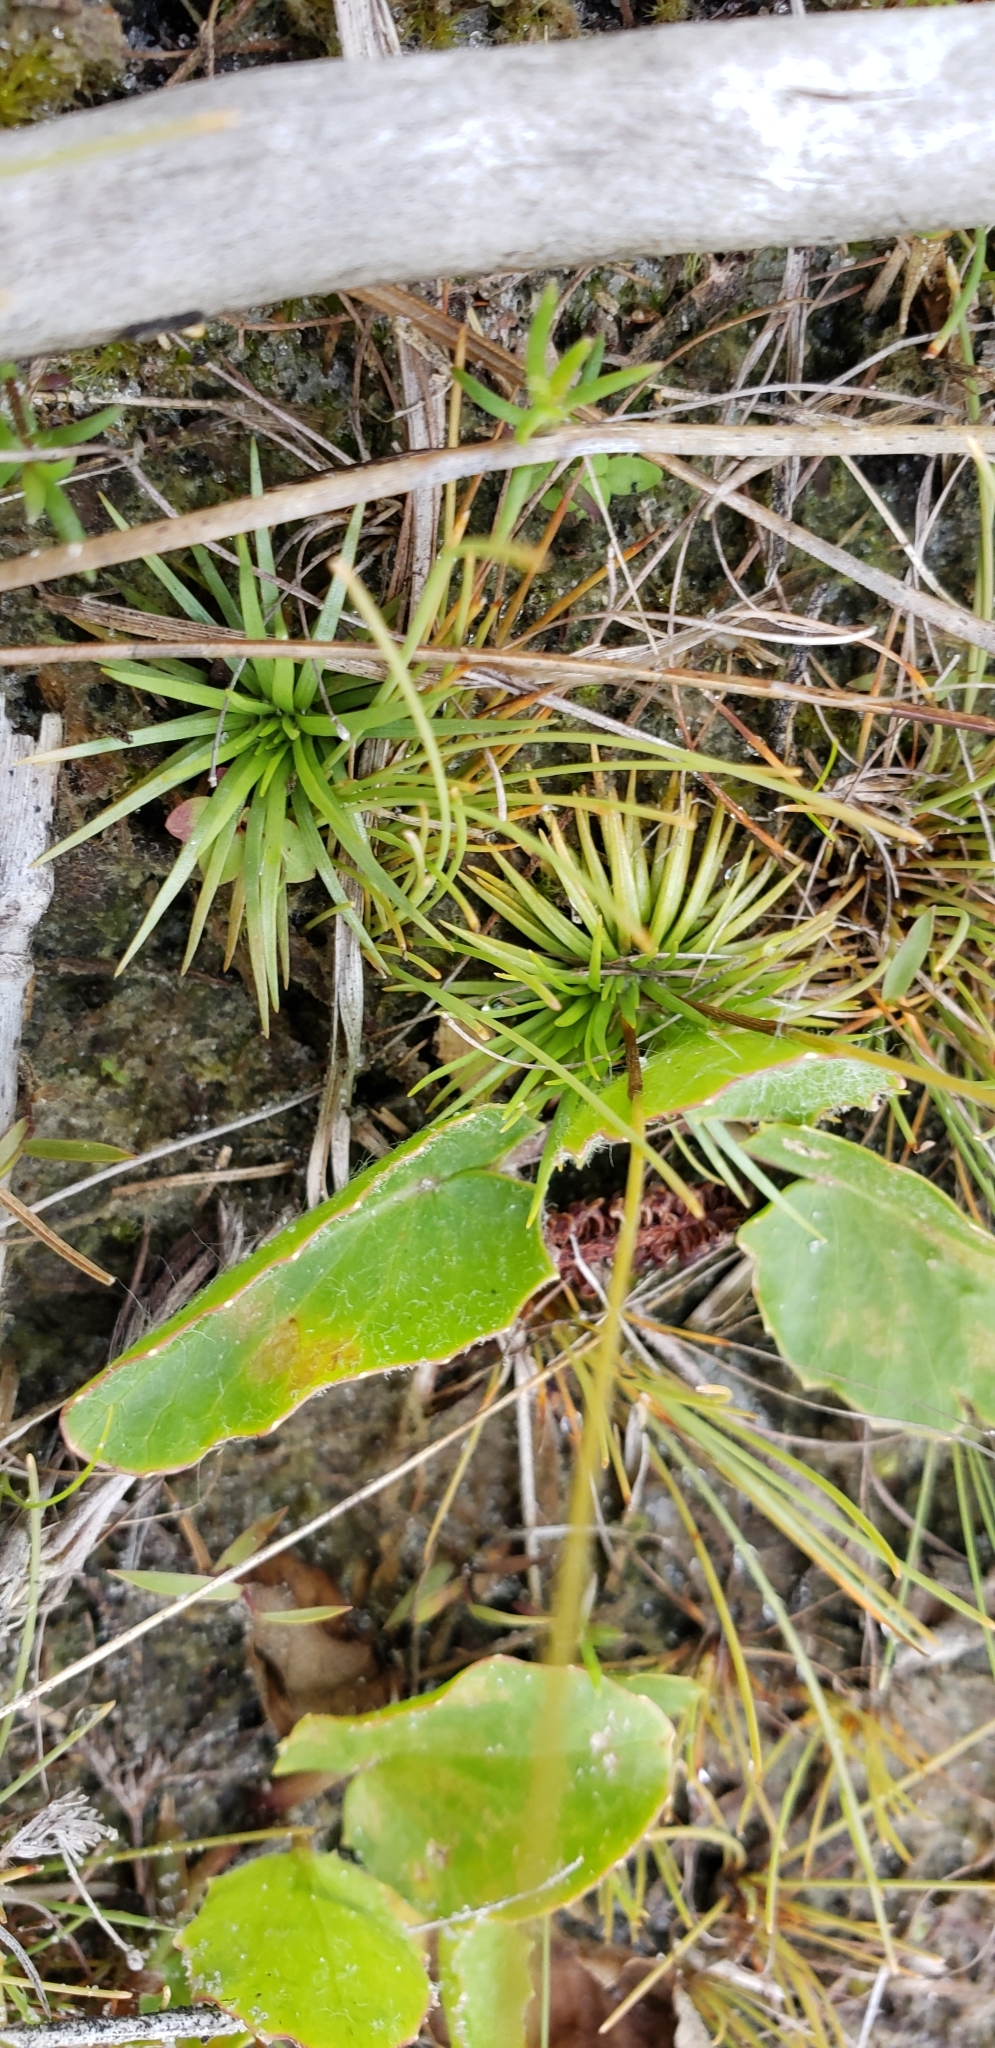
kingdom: Plantae
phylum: Tracheophyta
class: Liliopsida
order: Poales
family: Eriocaulaceae
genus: Syngonanthus
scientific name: Syngonanthus flavidulus
